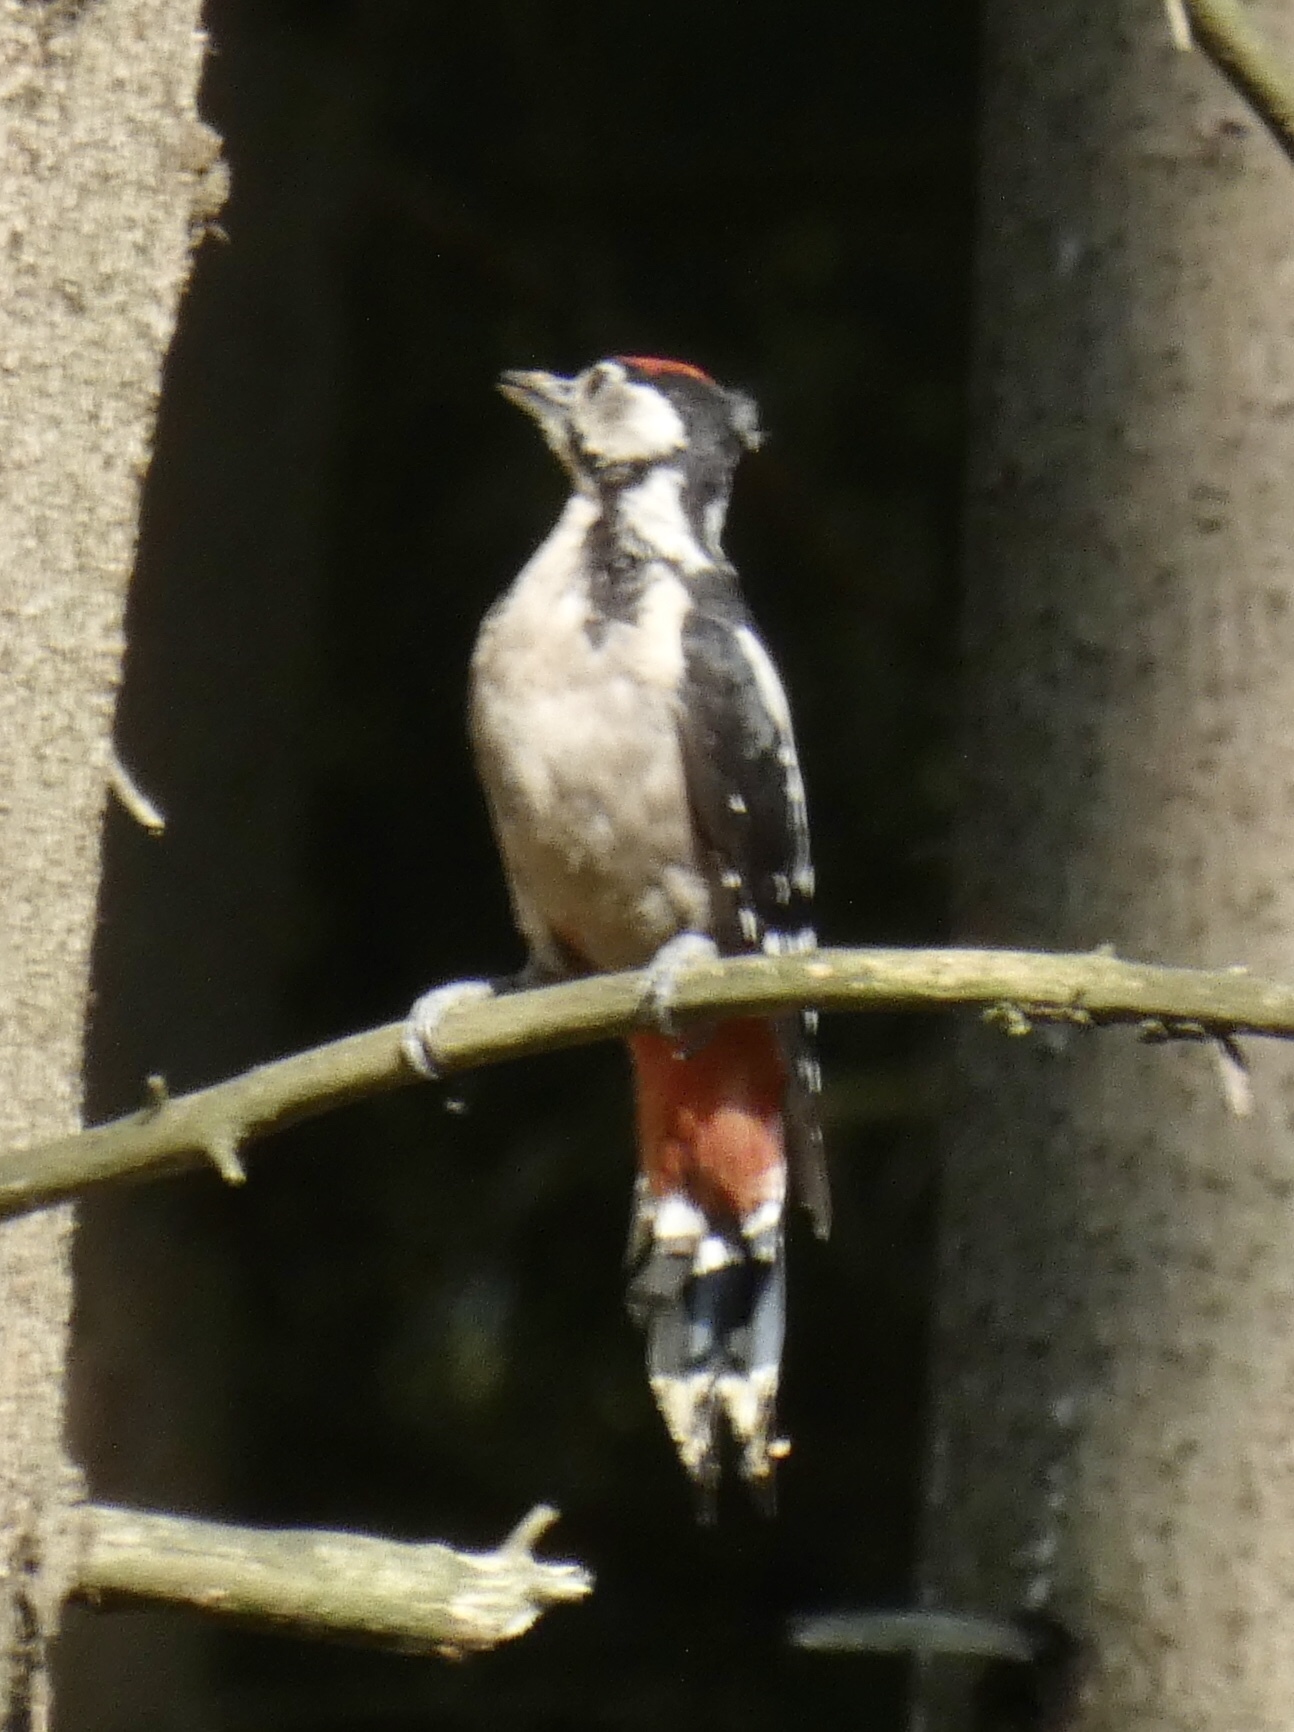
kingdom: Animalia
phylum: Chordata
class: Aves
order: Piciformes
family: Picidae
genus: Dendrocopos
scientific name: Dendrocopos major
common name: Great spotted woodpecker
